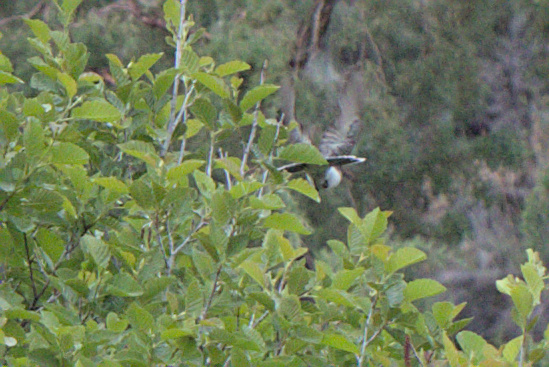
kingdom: Animalia
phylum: Chordata
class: Aves
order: Passeriformes
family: Tyrannidae
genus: Tyrannus
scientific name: Tyrannus tyrannus
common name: Eastern kingbird
